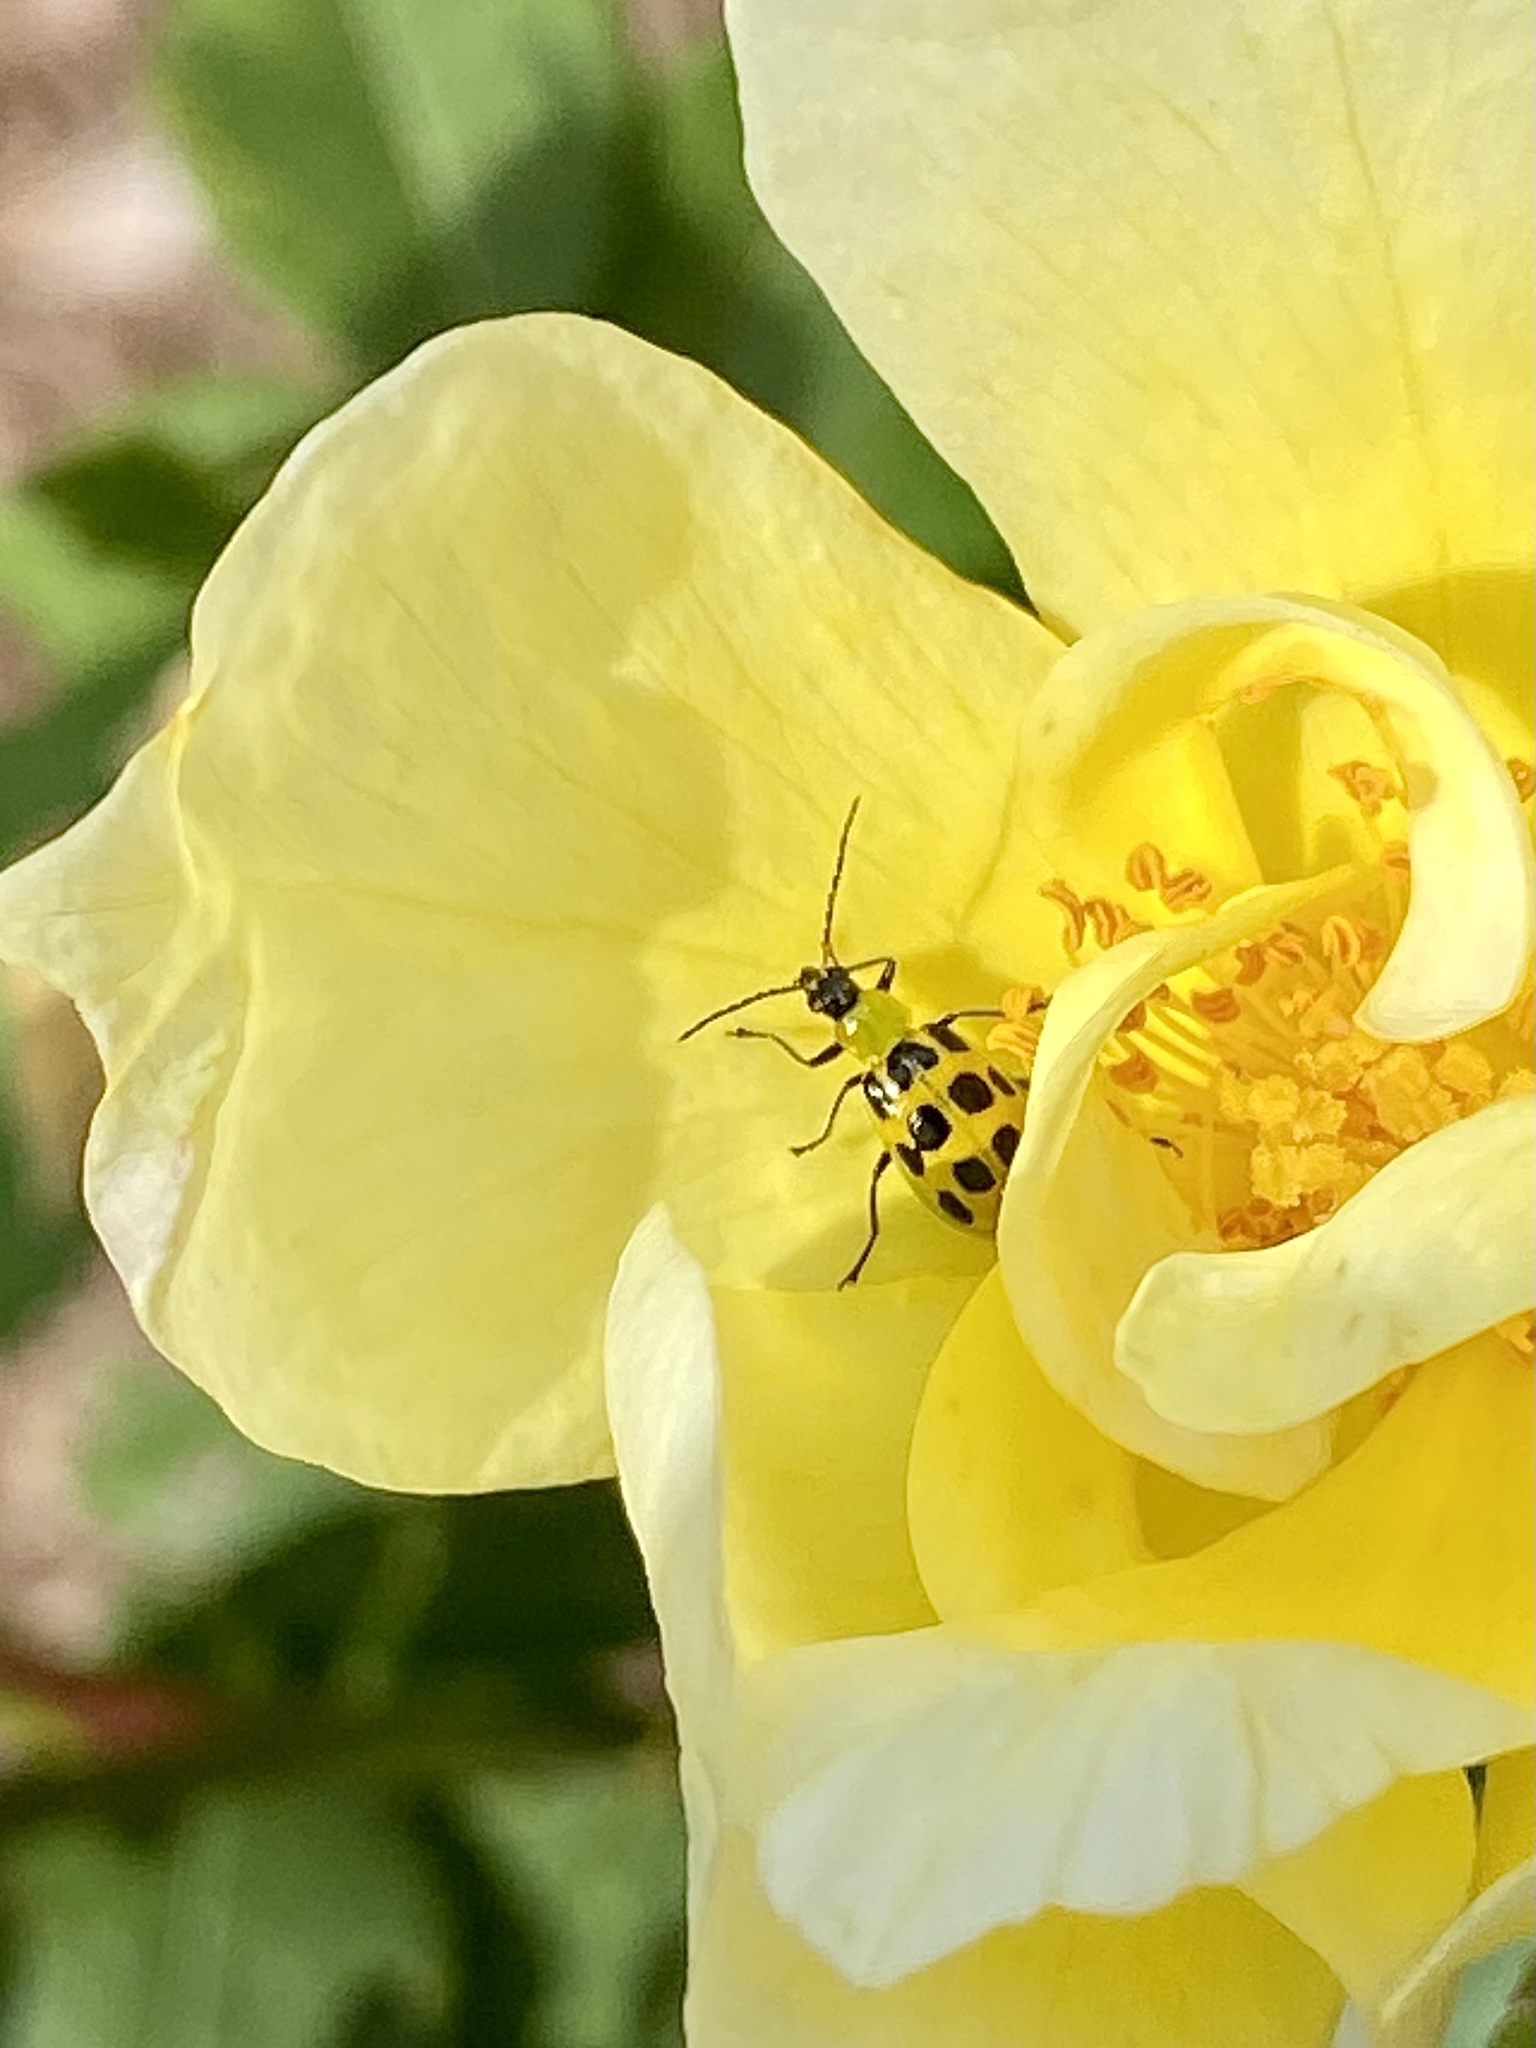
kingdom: Animalia
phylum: Arthropoda
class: Insecta
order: Coleoptera
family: Chrysomelidae
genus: Diabrotica
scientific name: Diabrotica undecimpunctata
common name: Spotted cucumber beetle
